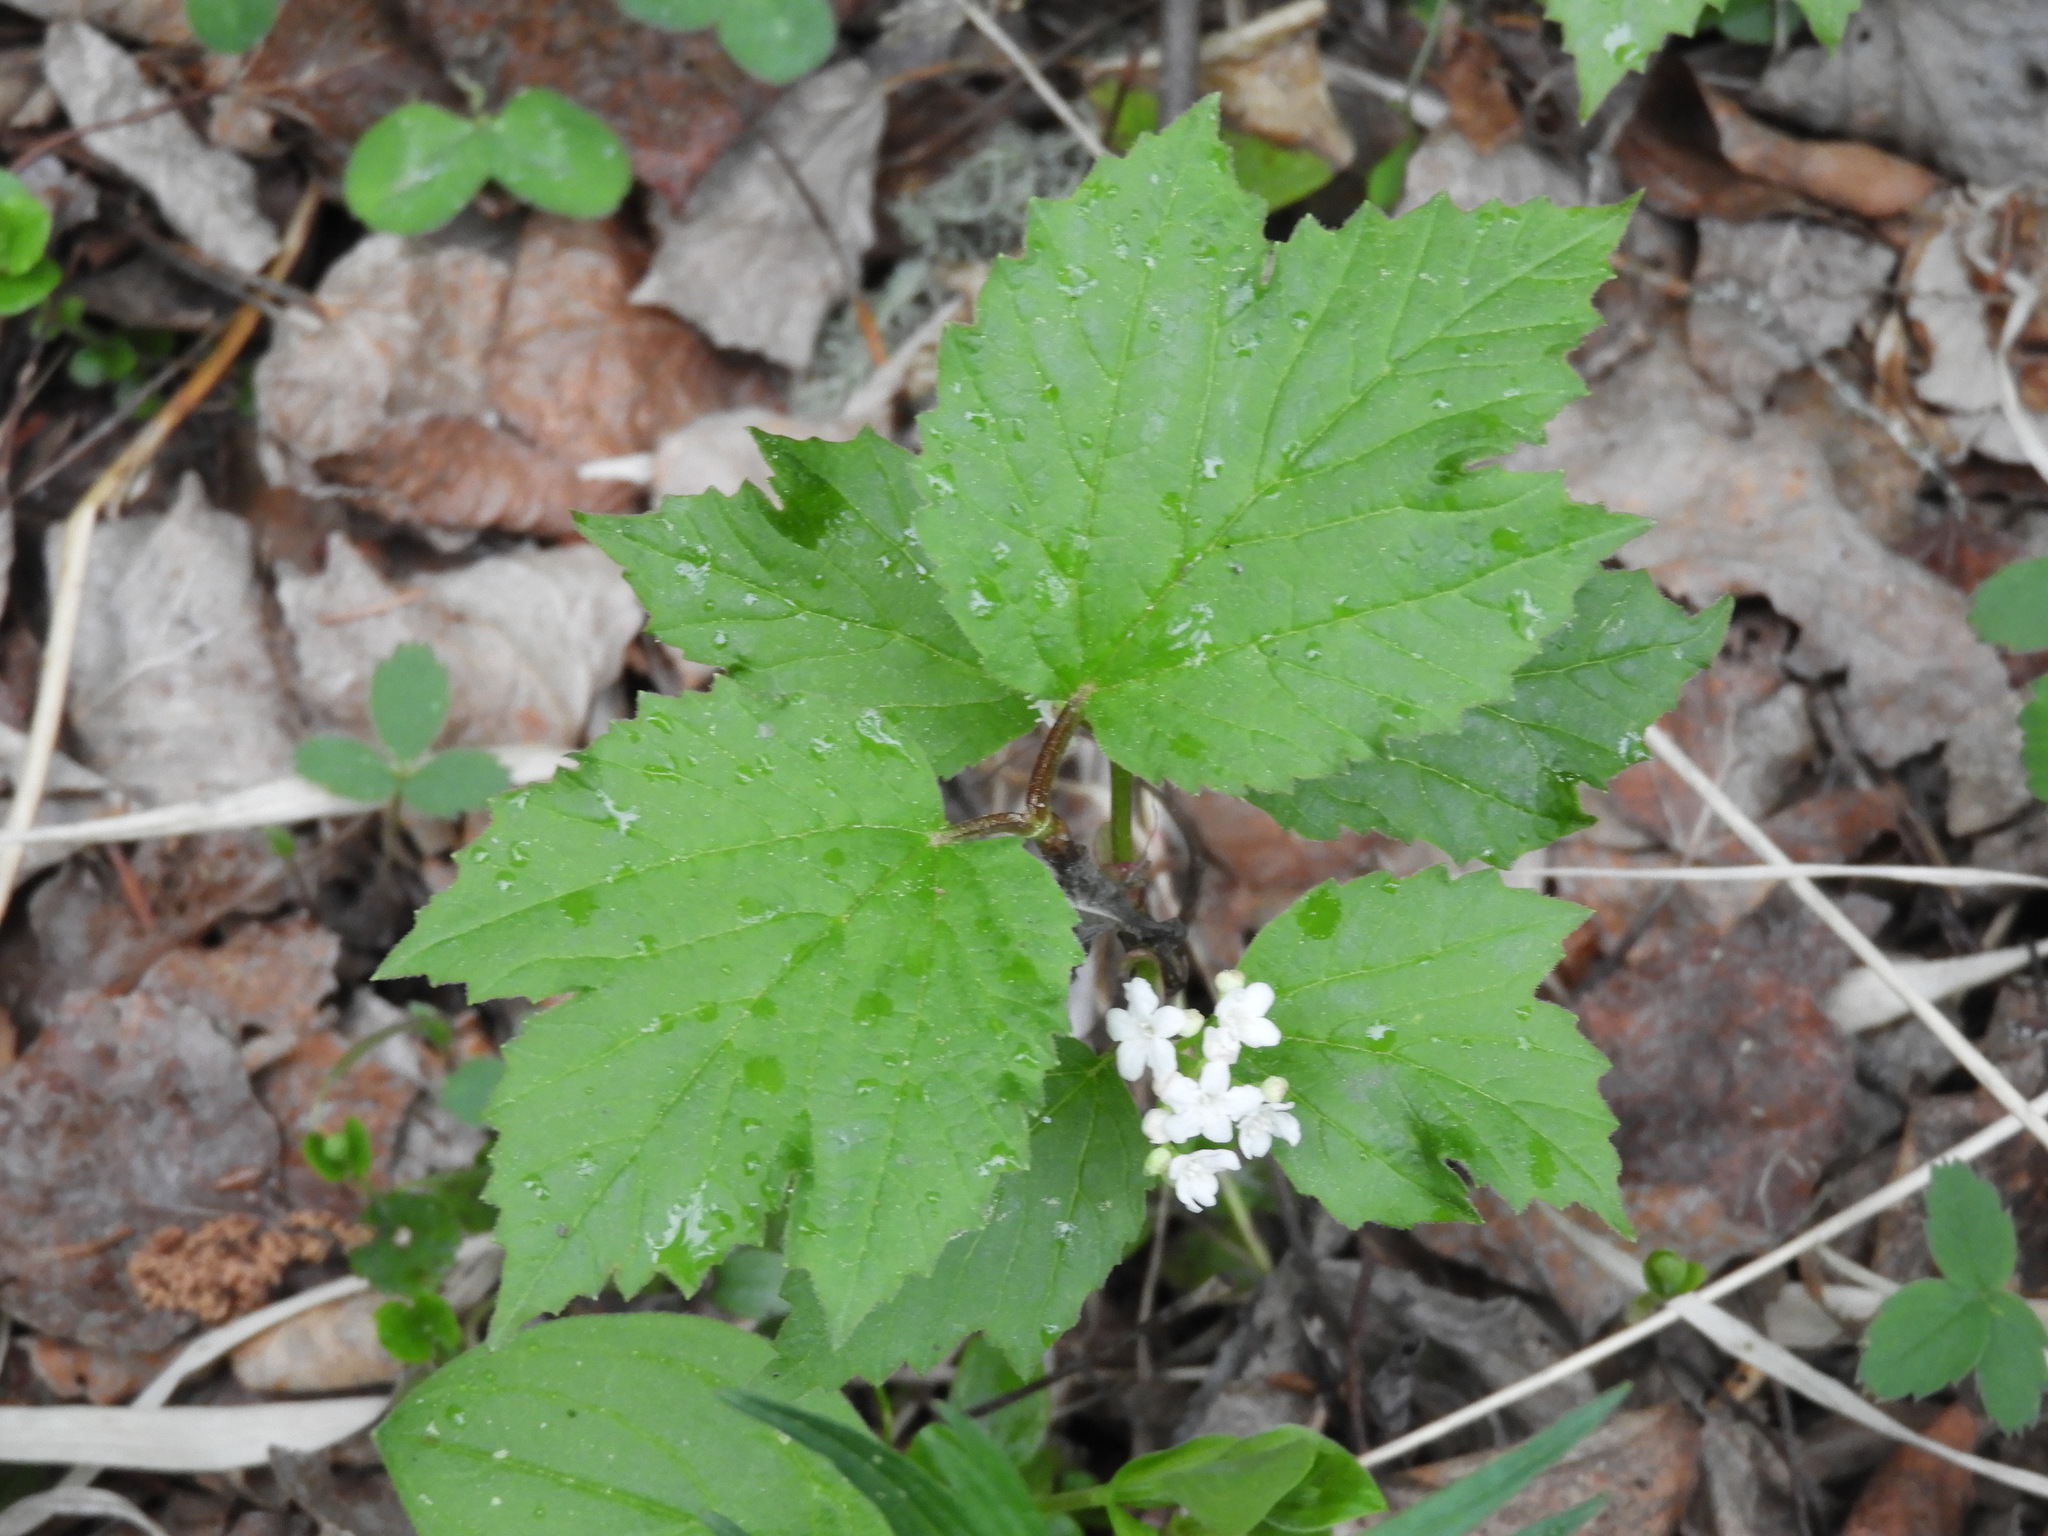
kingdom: Plantae
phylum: Tracheophyta
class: Magnoliopsida
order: Dipsacales
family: Viburnaceae
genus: Viburnum
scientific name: Viburnum edule
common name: Mooseberry
